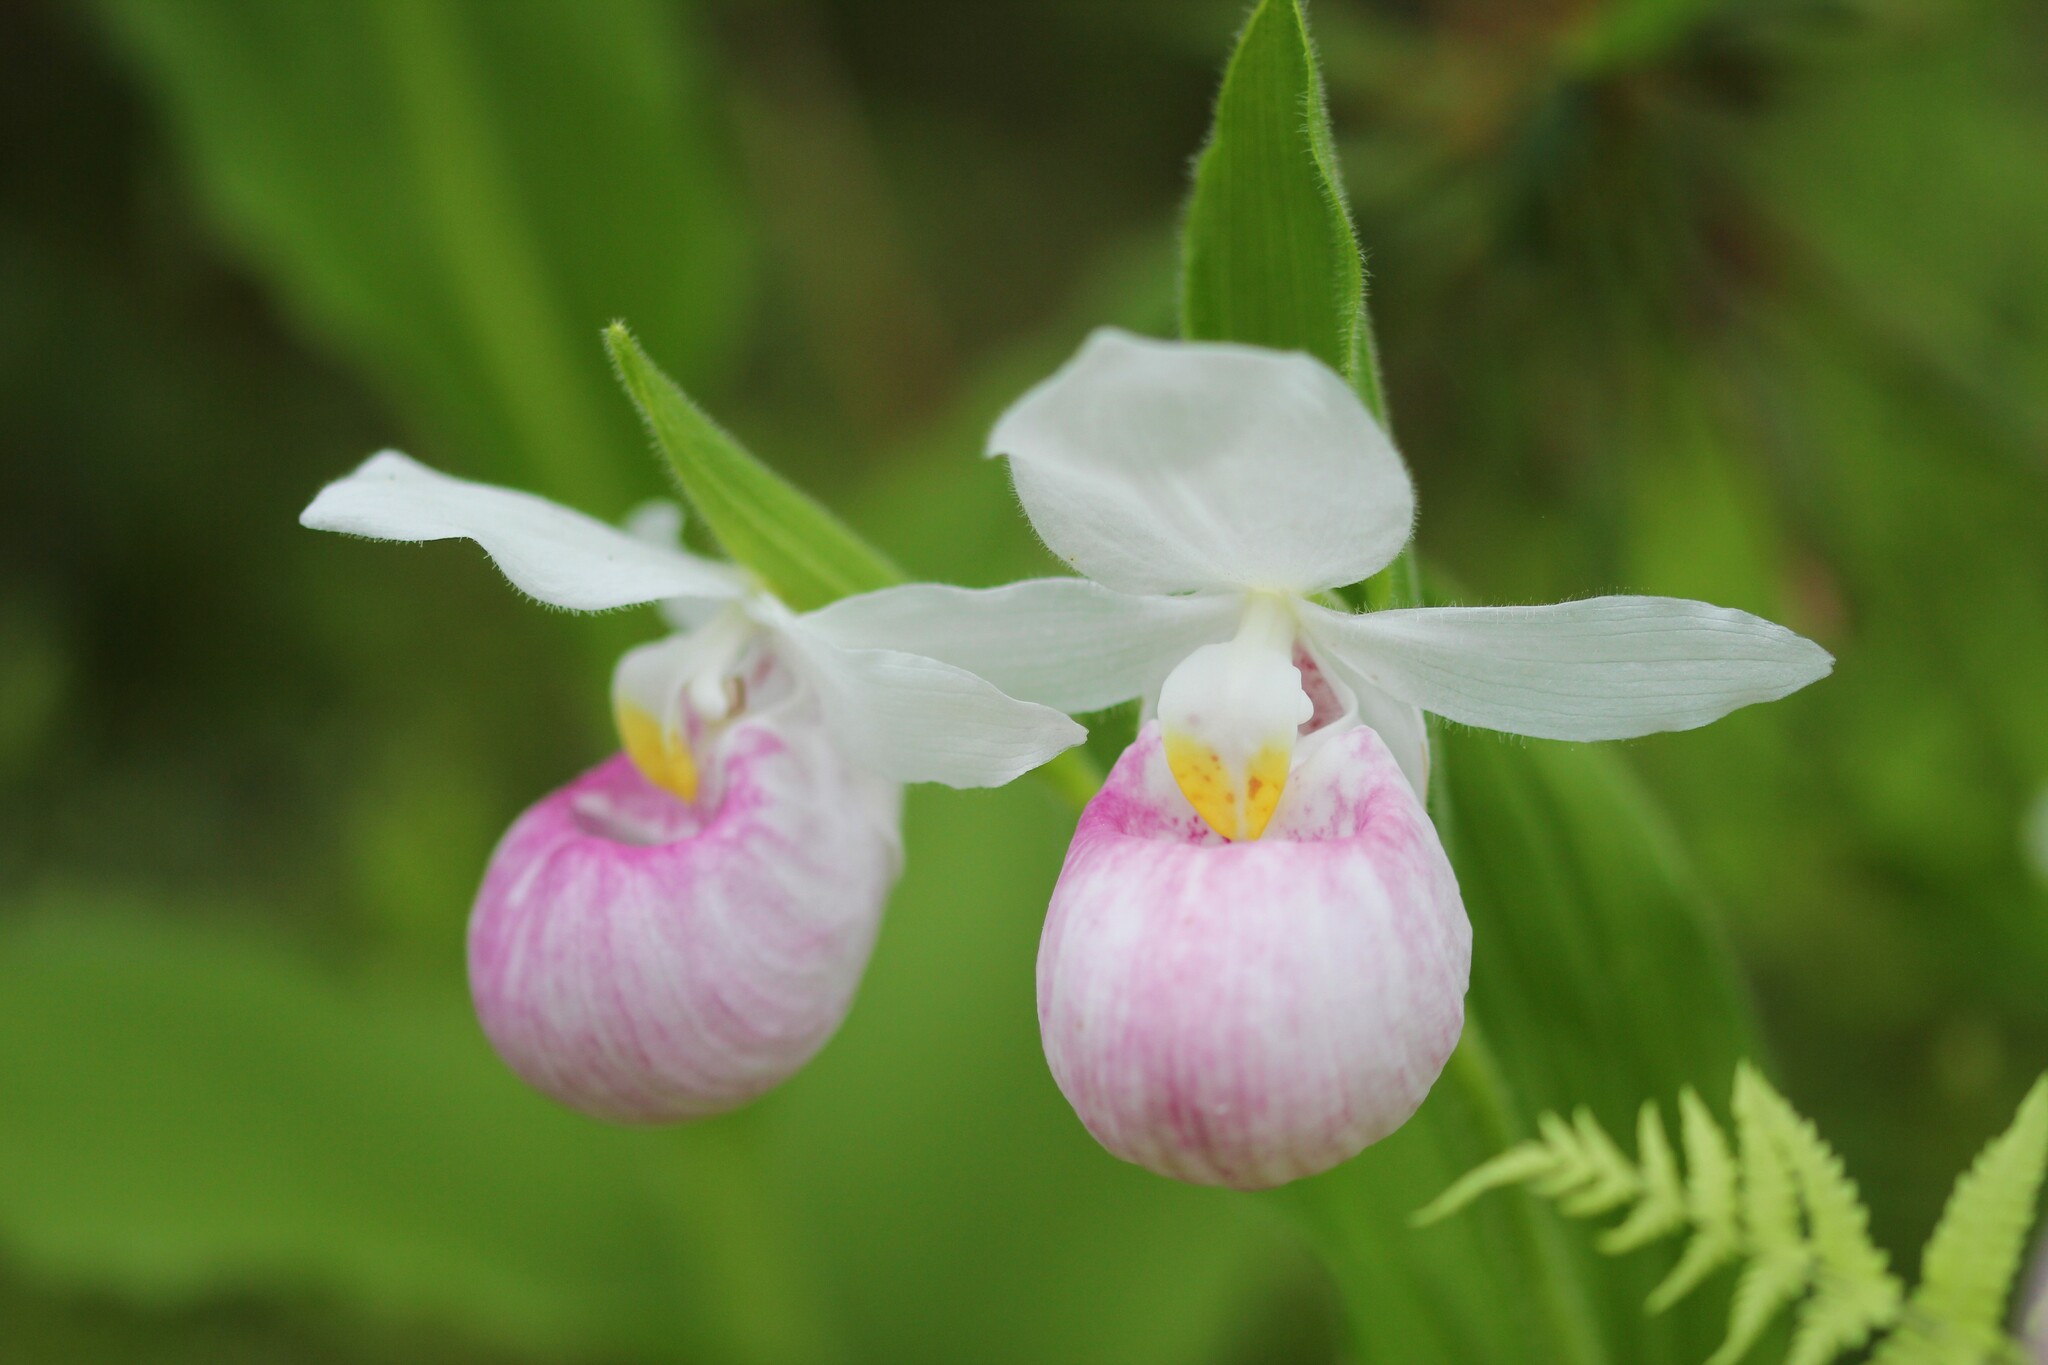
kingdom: Plantae
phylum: Tracheophyta
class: Liliopsida
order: Asparagales
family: Orchidaceae
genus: Cypripedium
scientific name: Cypripedium reginae
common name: Queen lady's-slipper
